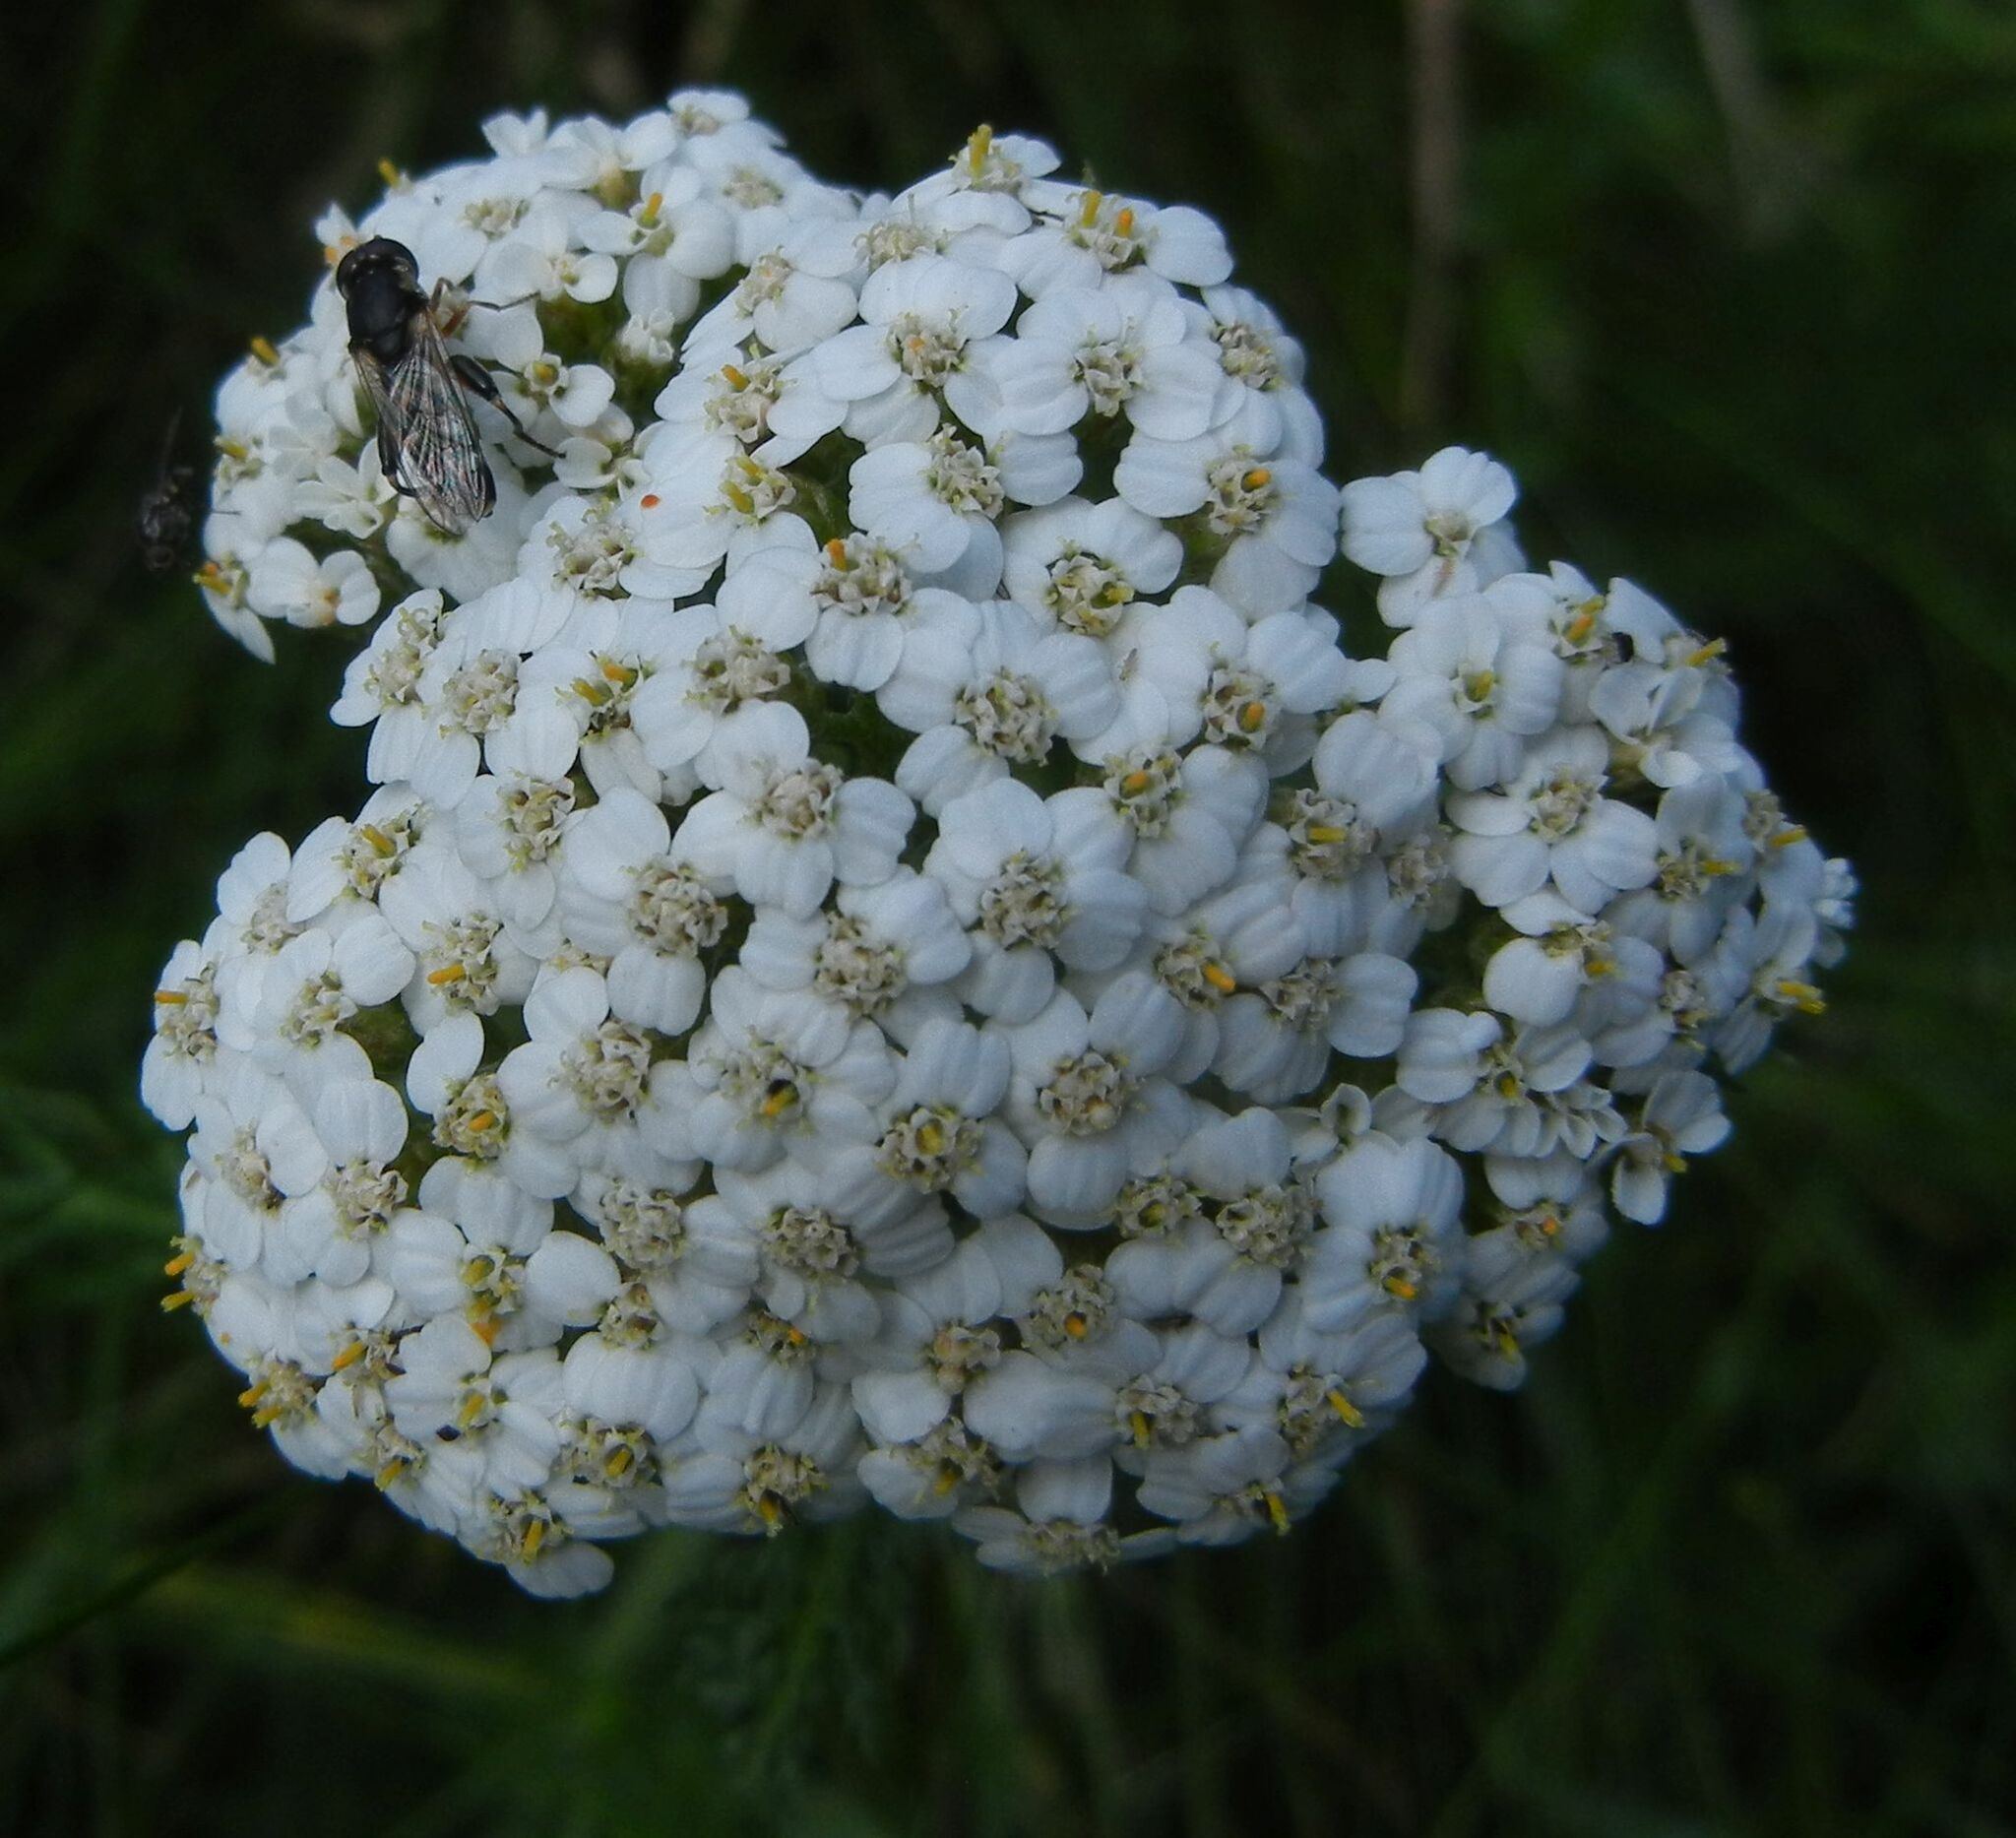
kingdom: Plantae
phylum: Tracheophyta
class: Magnoliopsida
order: Asterales
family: Asteraceae
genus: Achillea
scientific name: Achillea millefolium
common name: Yarrow
